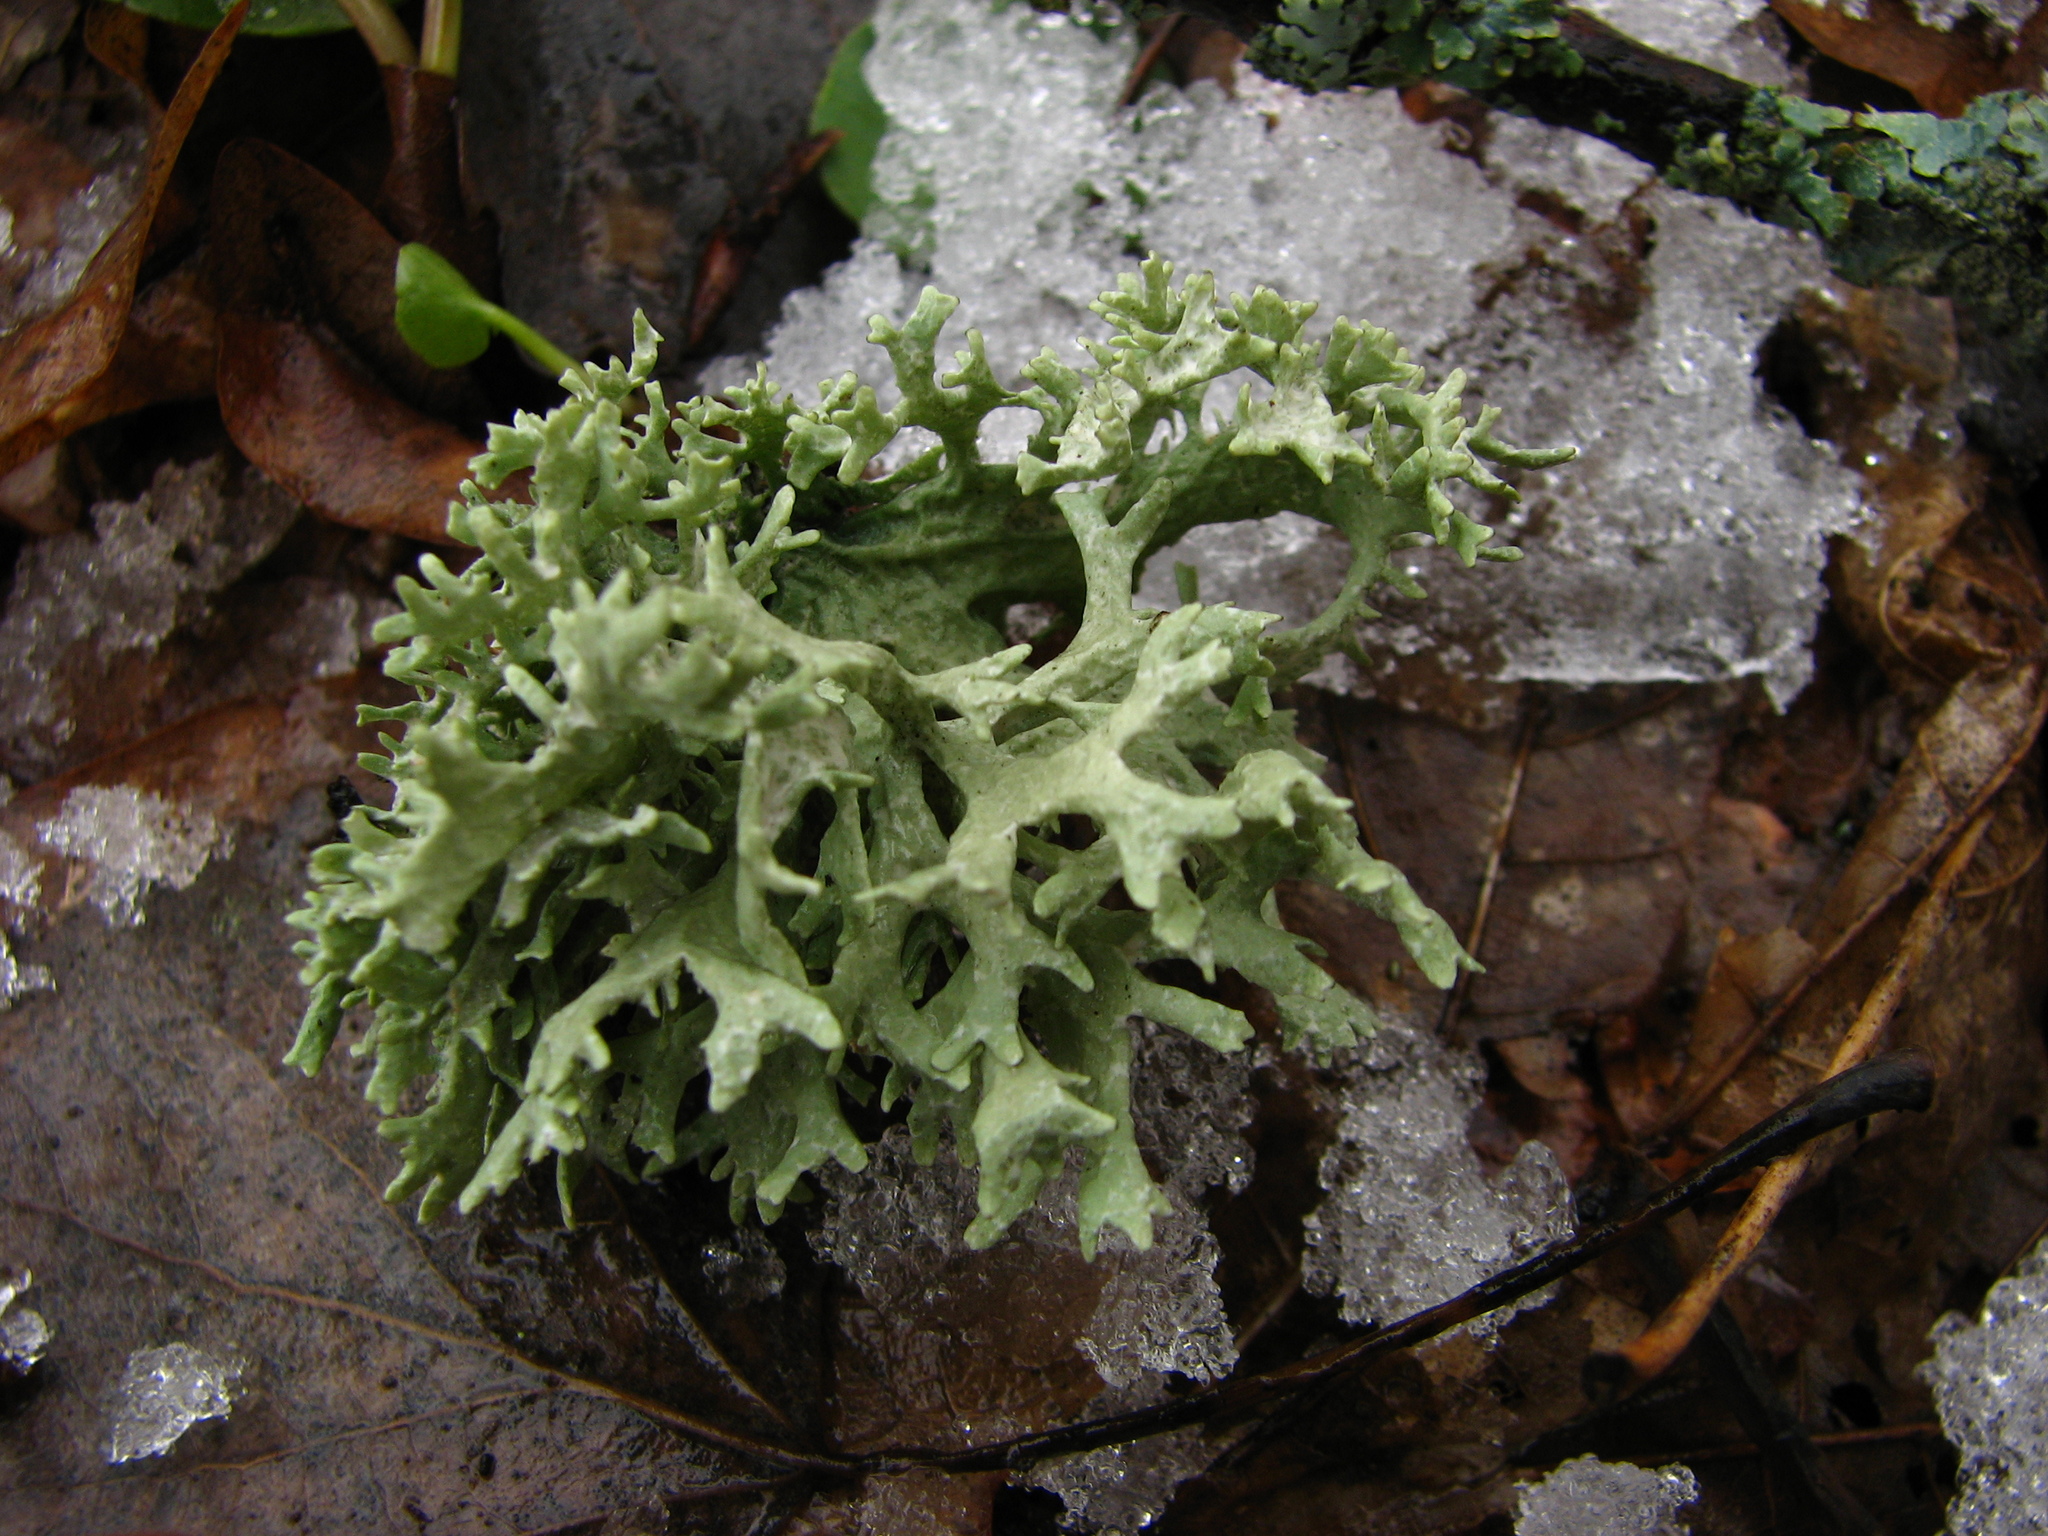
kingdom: Fungi
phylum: Ascomycota
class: Lecanoromycetes
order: Lecanorales
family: Parmeliaceae
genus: Evernia
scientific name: Evernia prunastri
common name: Oak moss
